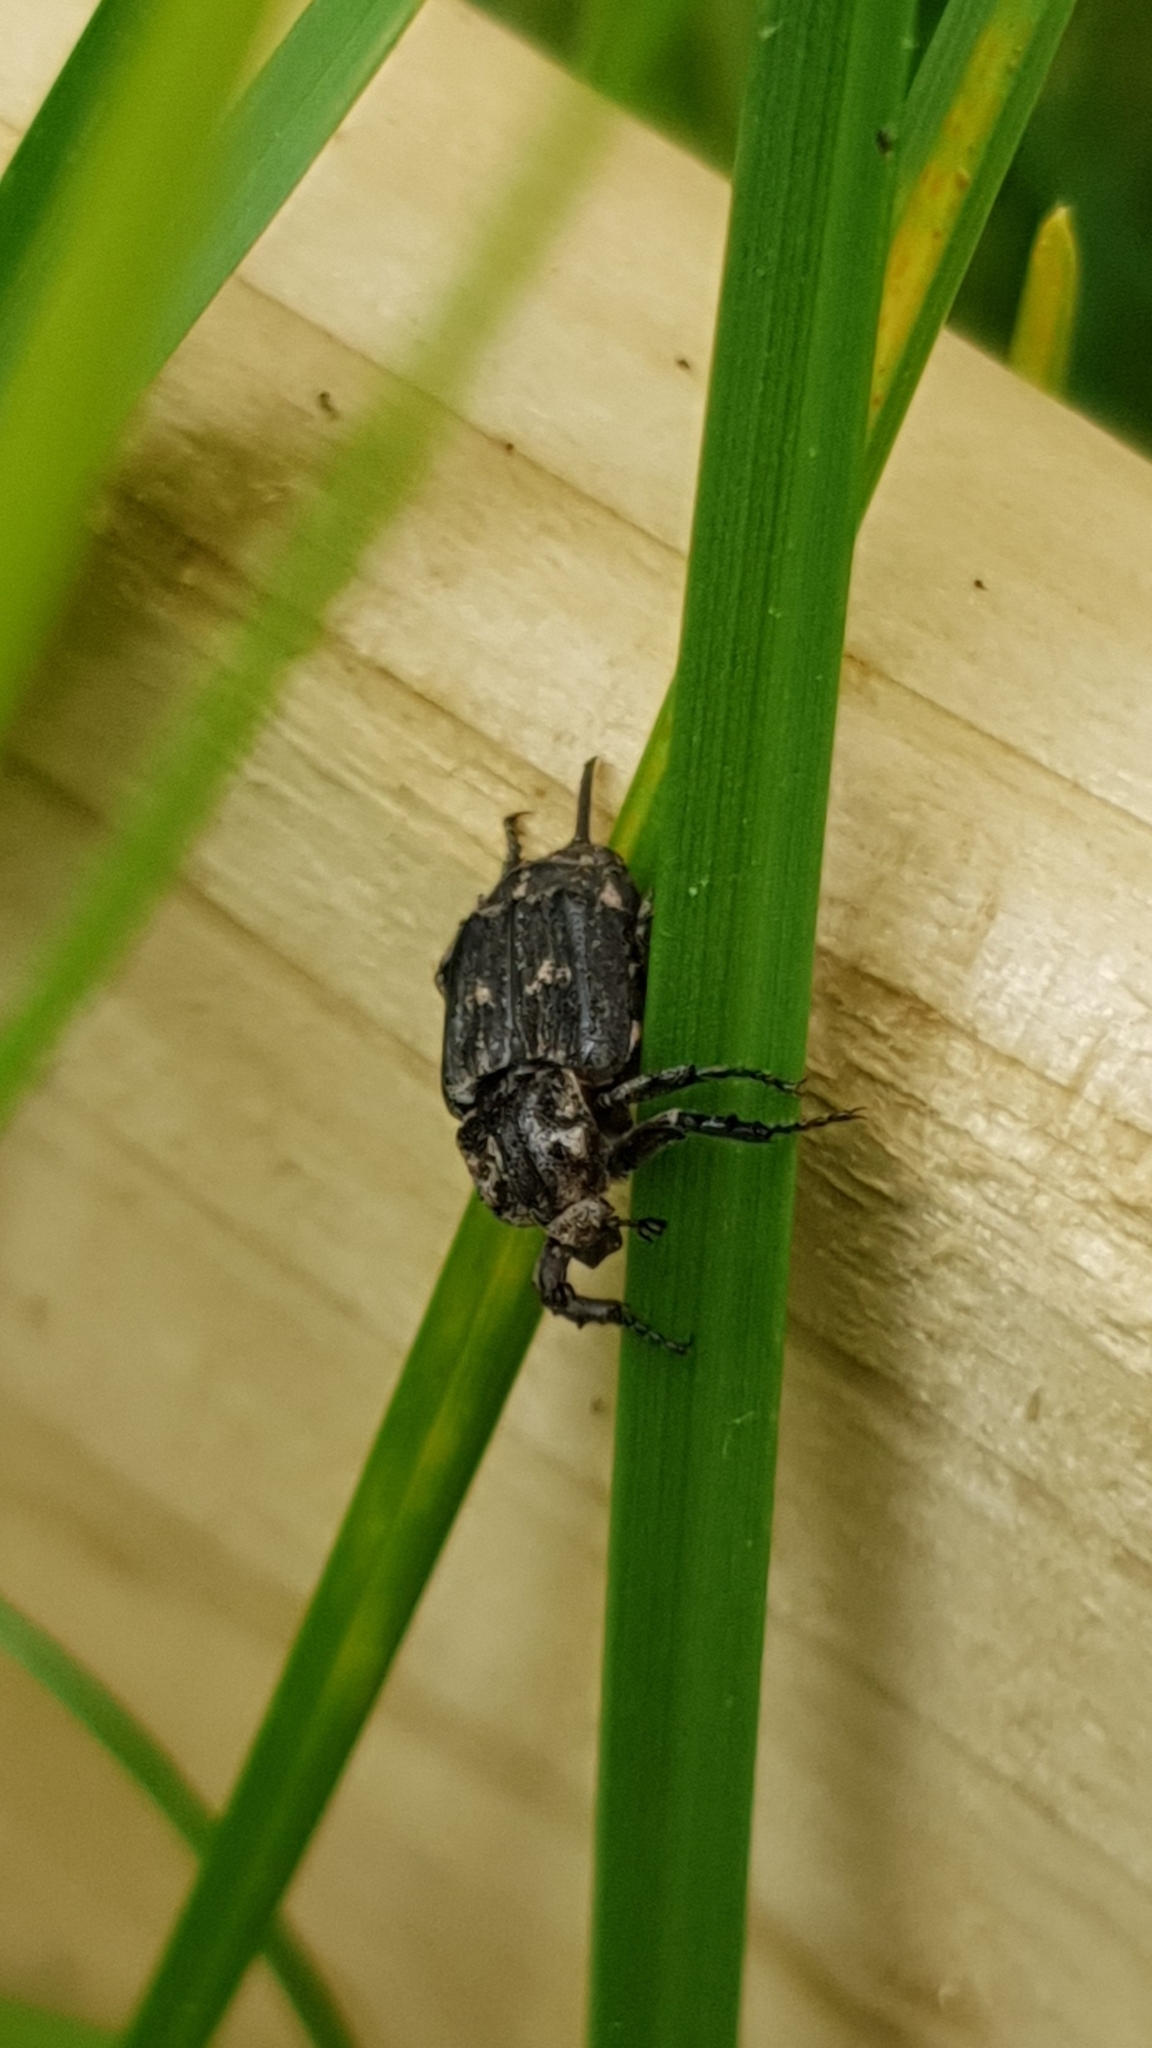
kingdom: Animalia
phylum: Arthropoda
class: Insecta
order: Coleoptera
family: Scarabaeidae
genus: Valgus
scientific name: Valgus hemipterus
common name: Bug flower chafer
